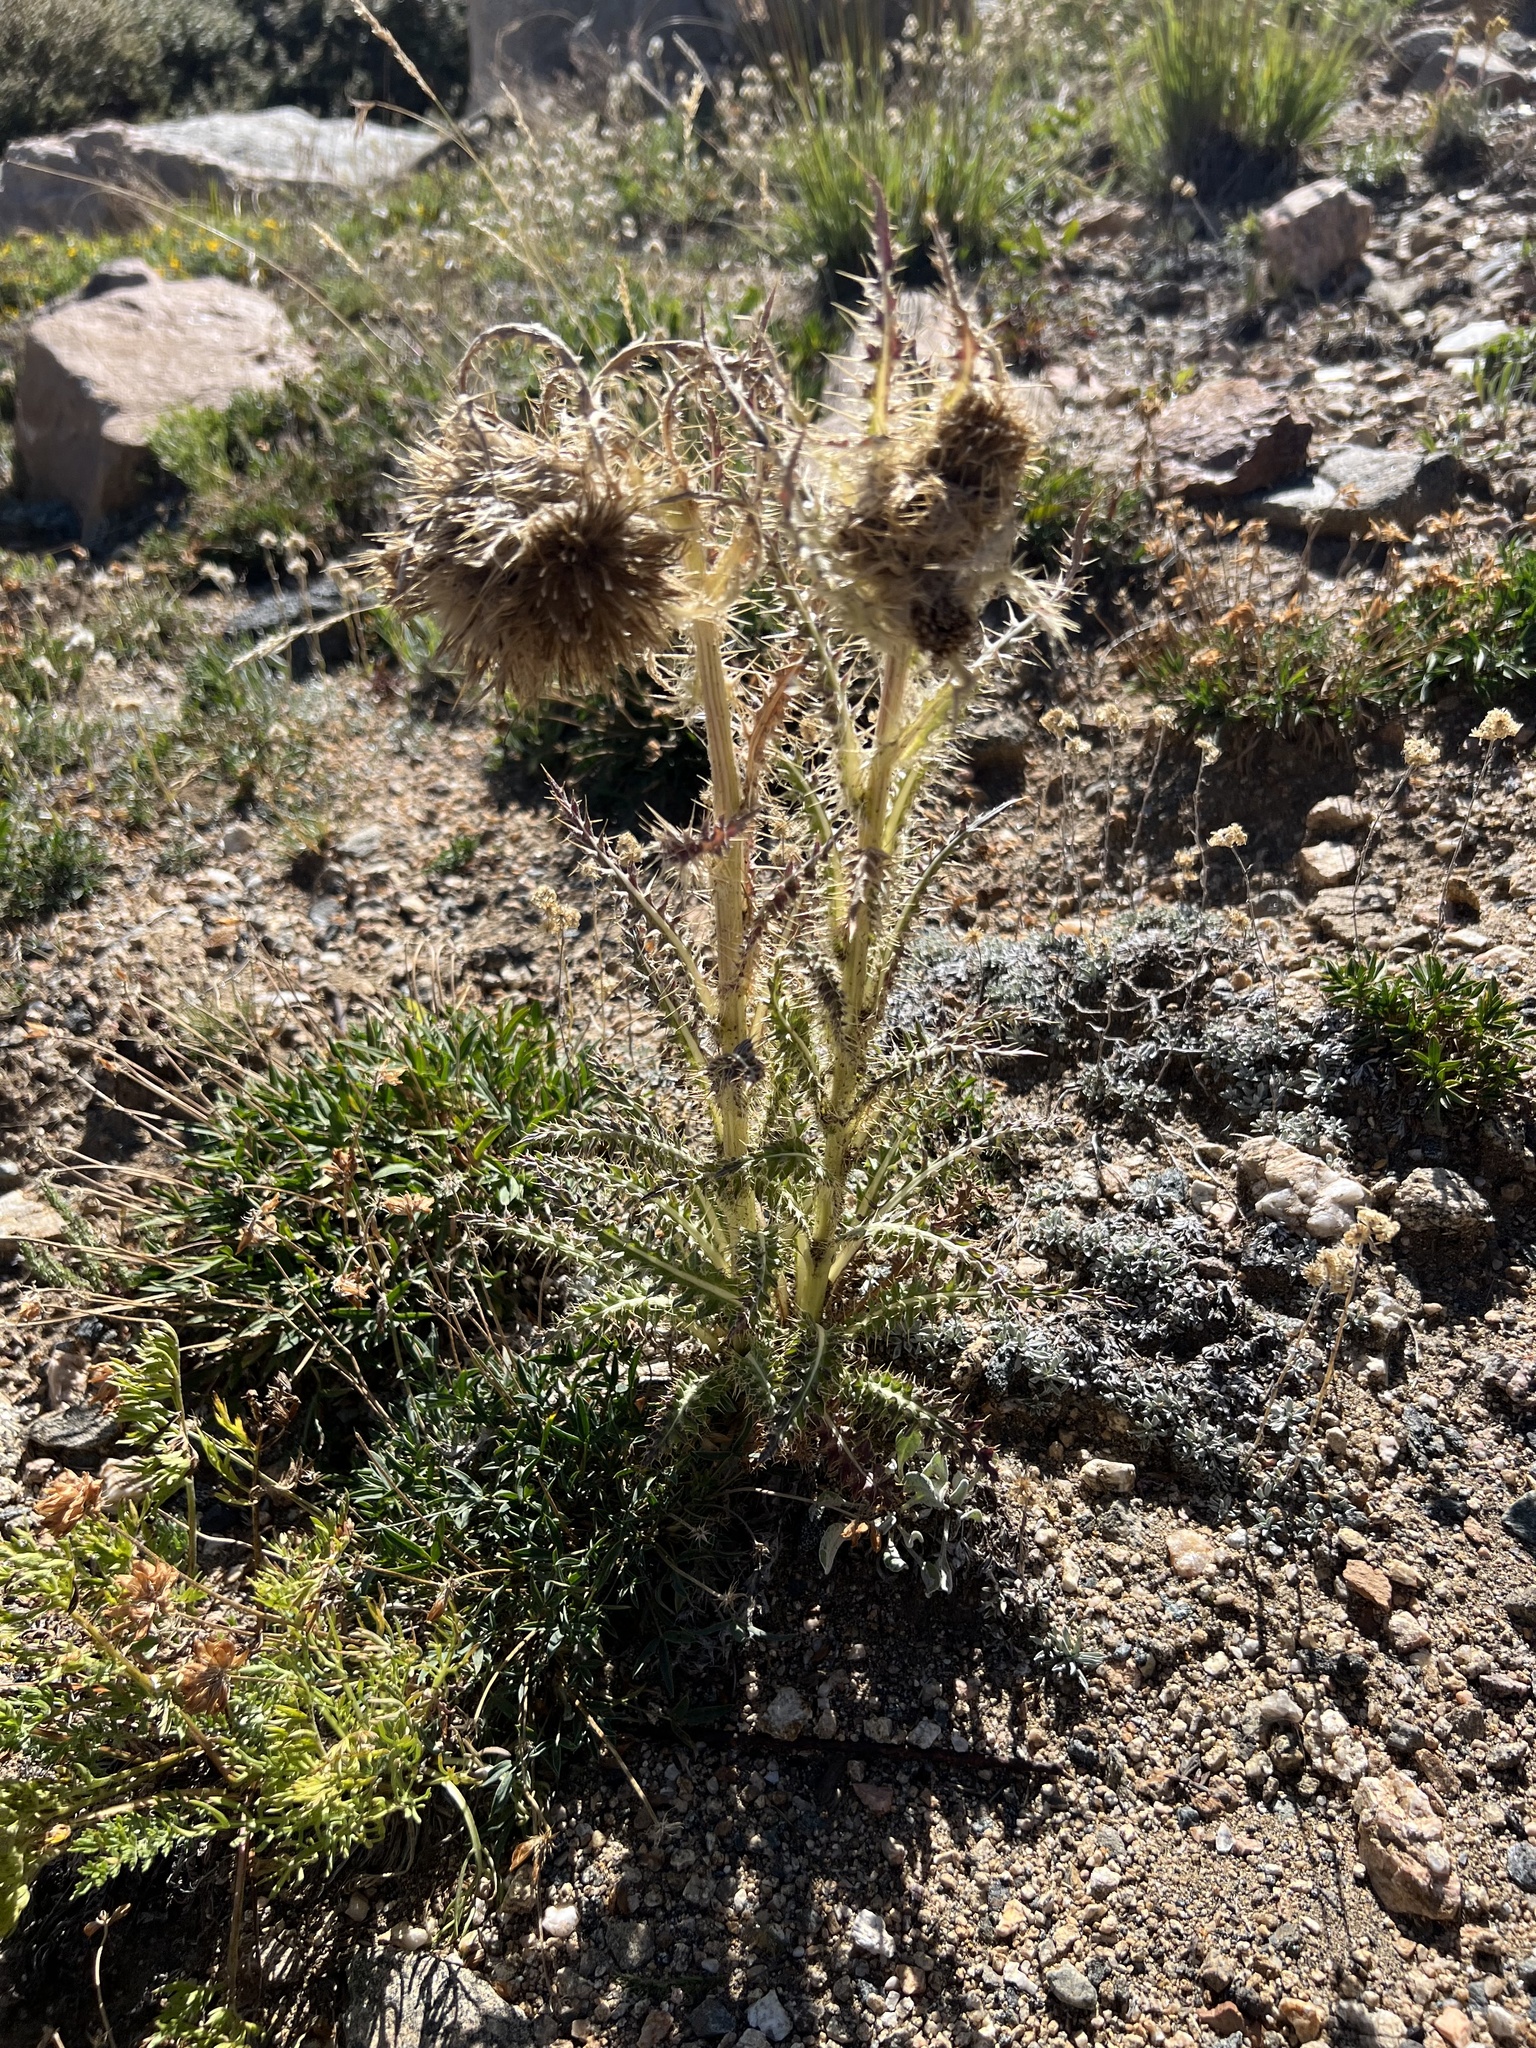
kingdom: Plantae
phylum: Tracheophyta
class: Magnoliopsida
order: Asterales
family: Asteraceae
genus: Cirsium
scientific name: Cirsium scopulorum
